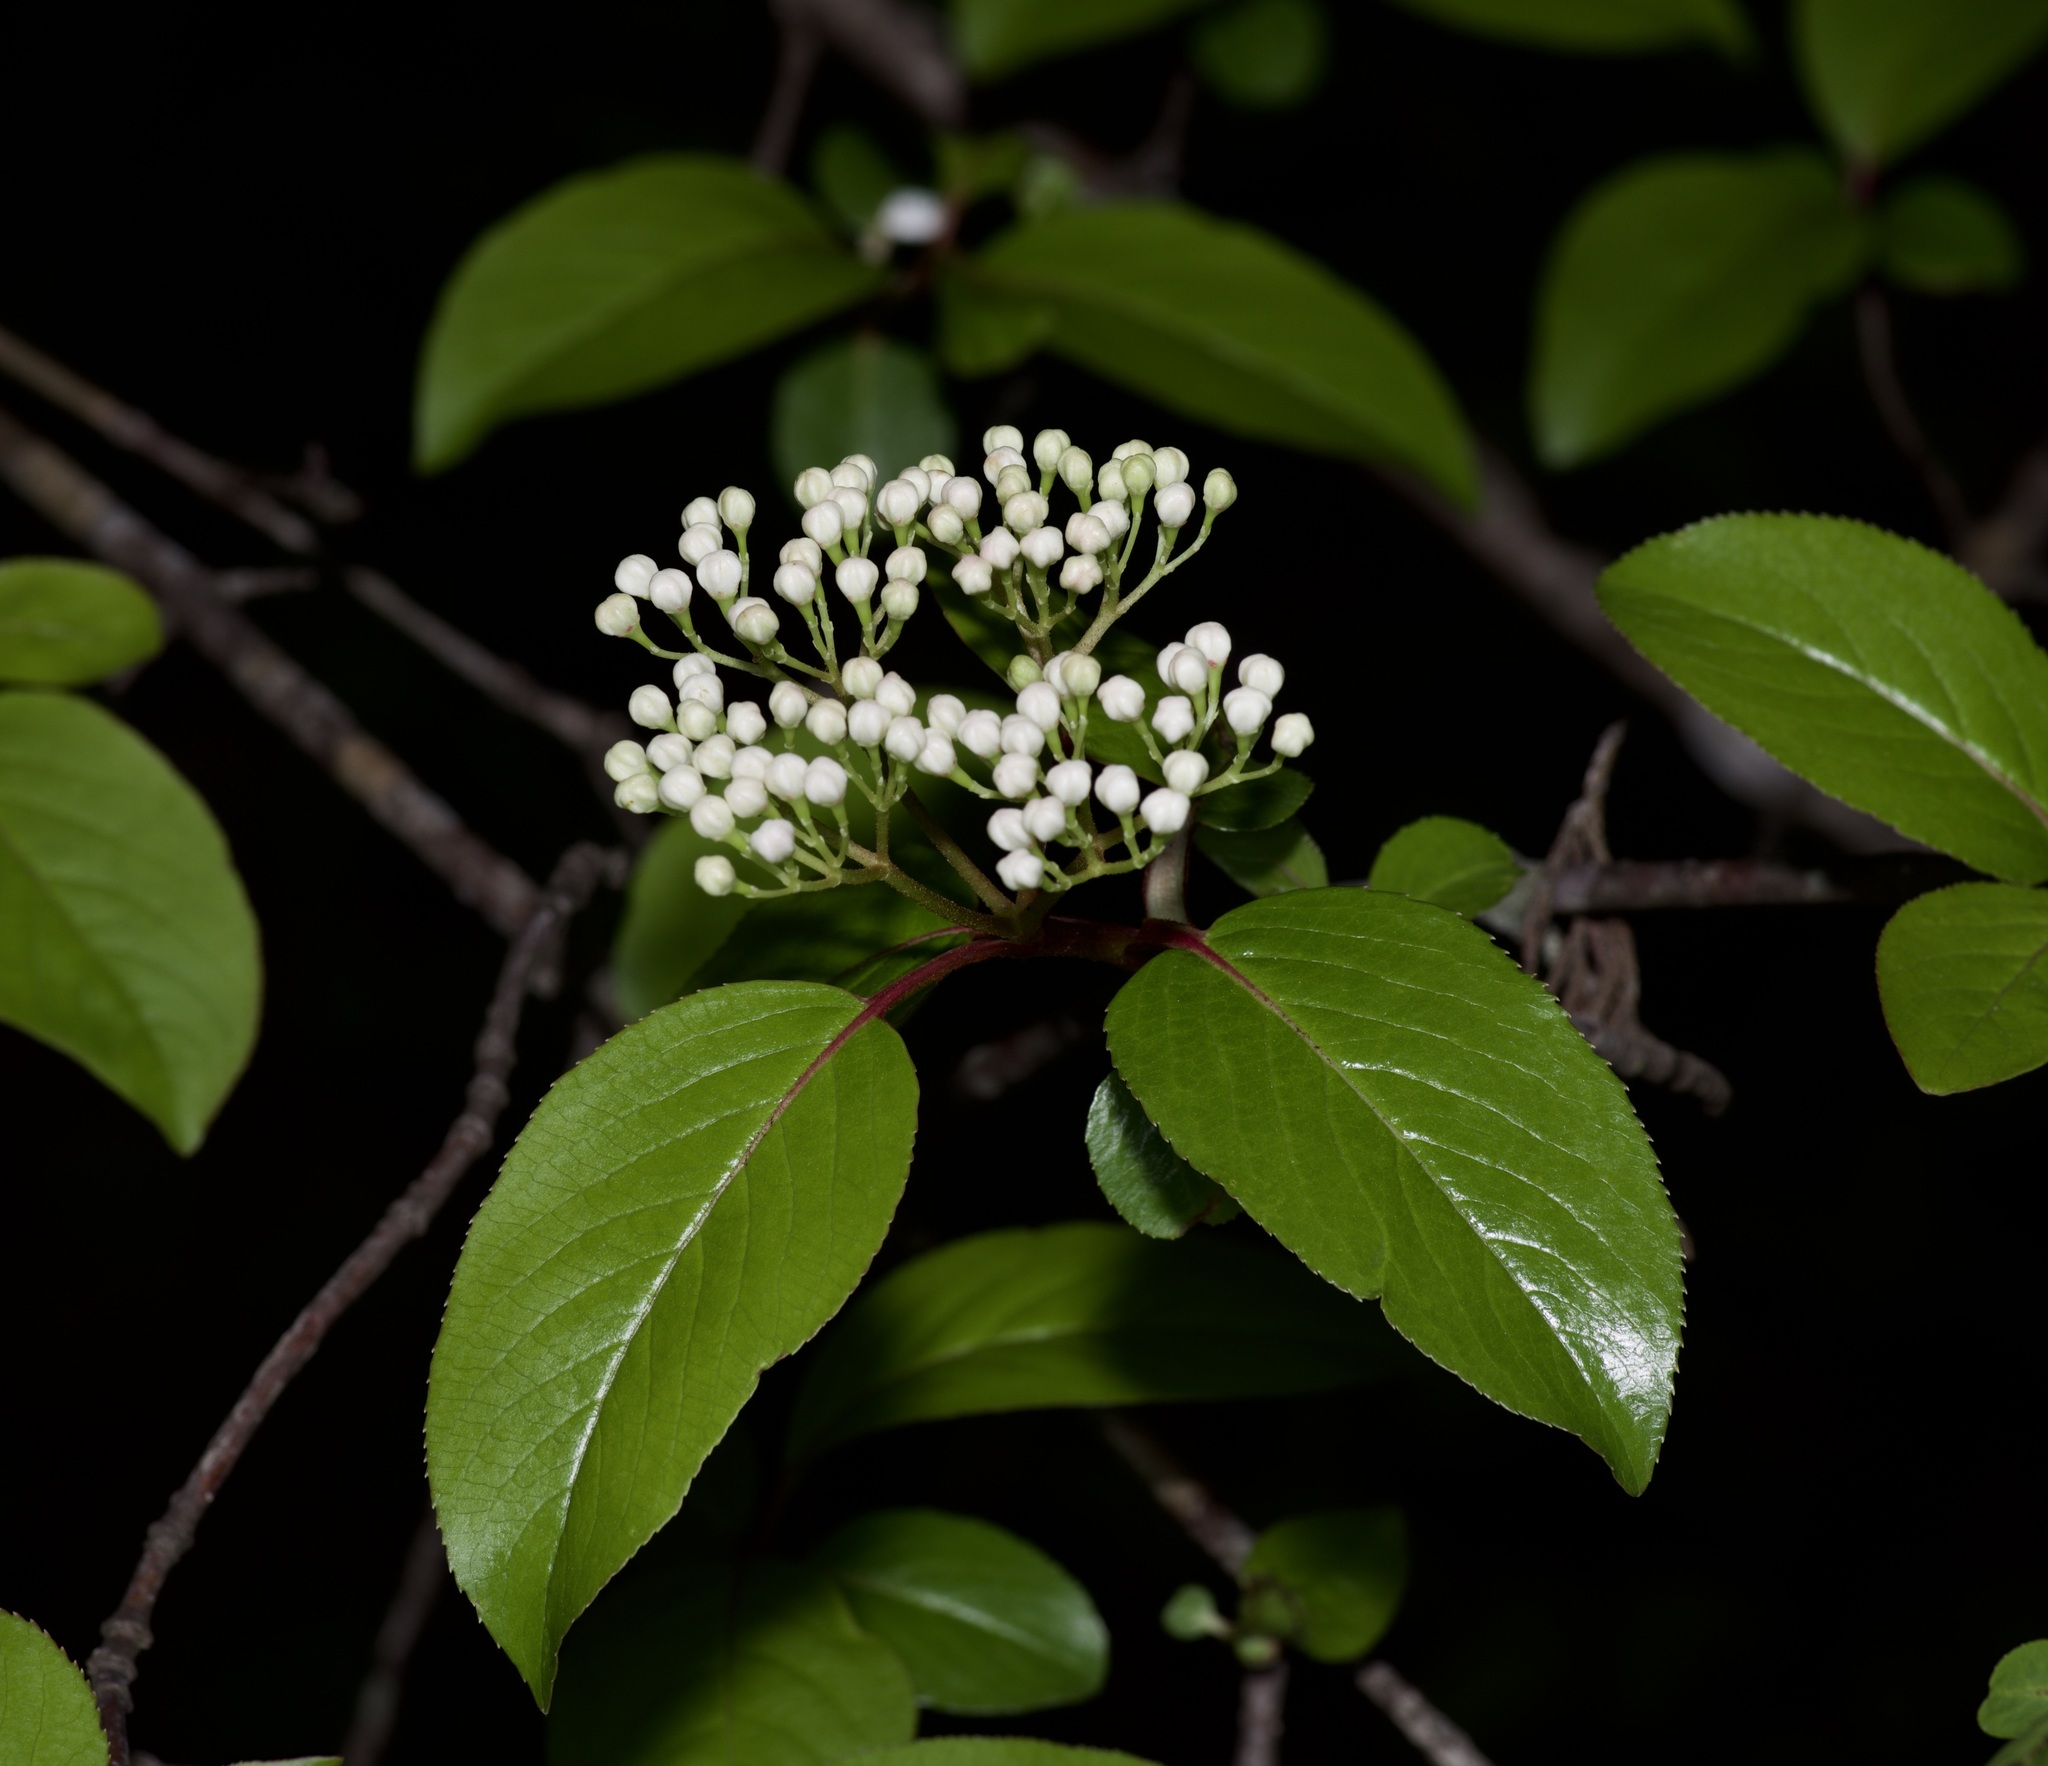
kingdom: Plantae
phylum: Tracheophyta
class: Magnoliopsida
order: Dipsacales
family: Viburnaceae
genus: Viburnum
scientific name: Viburnum rufidulum
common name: Blue haw
